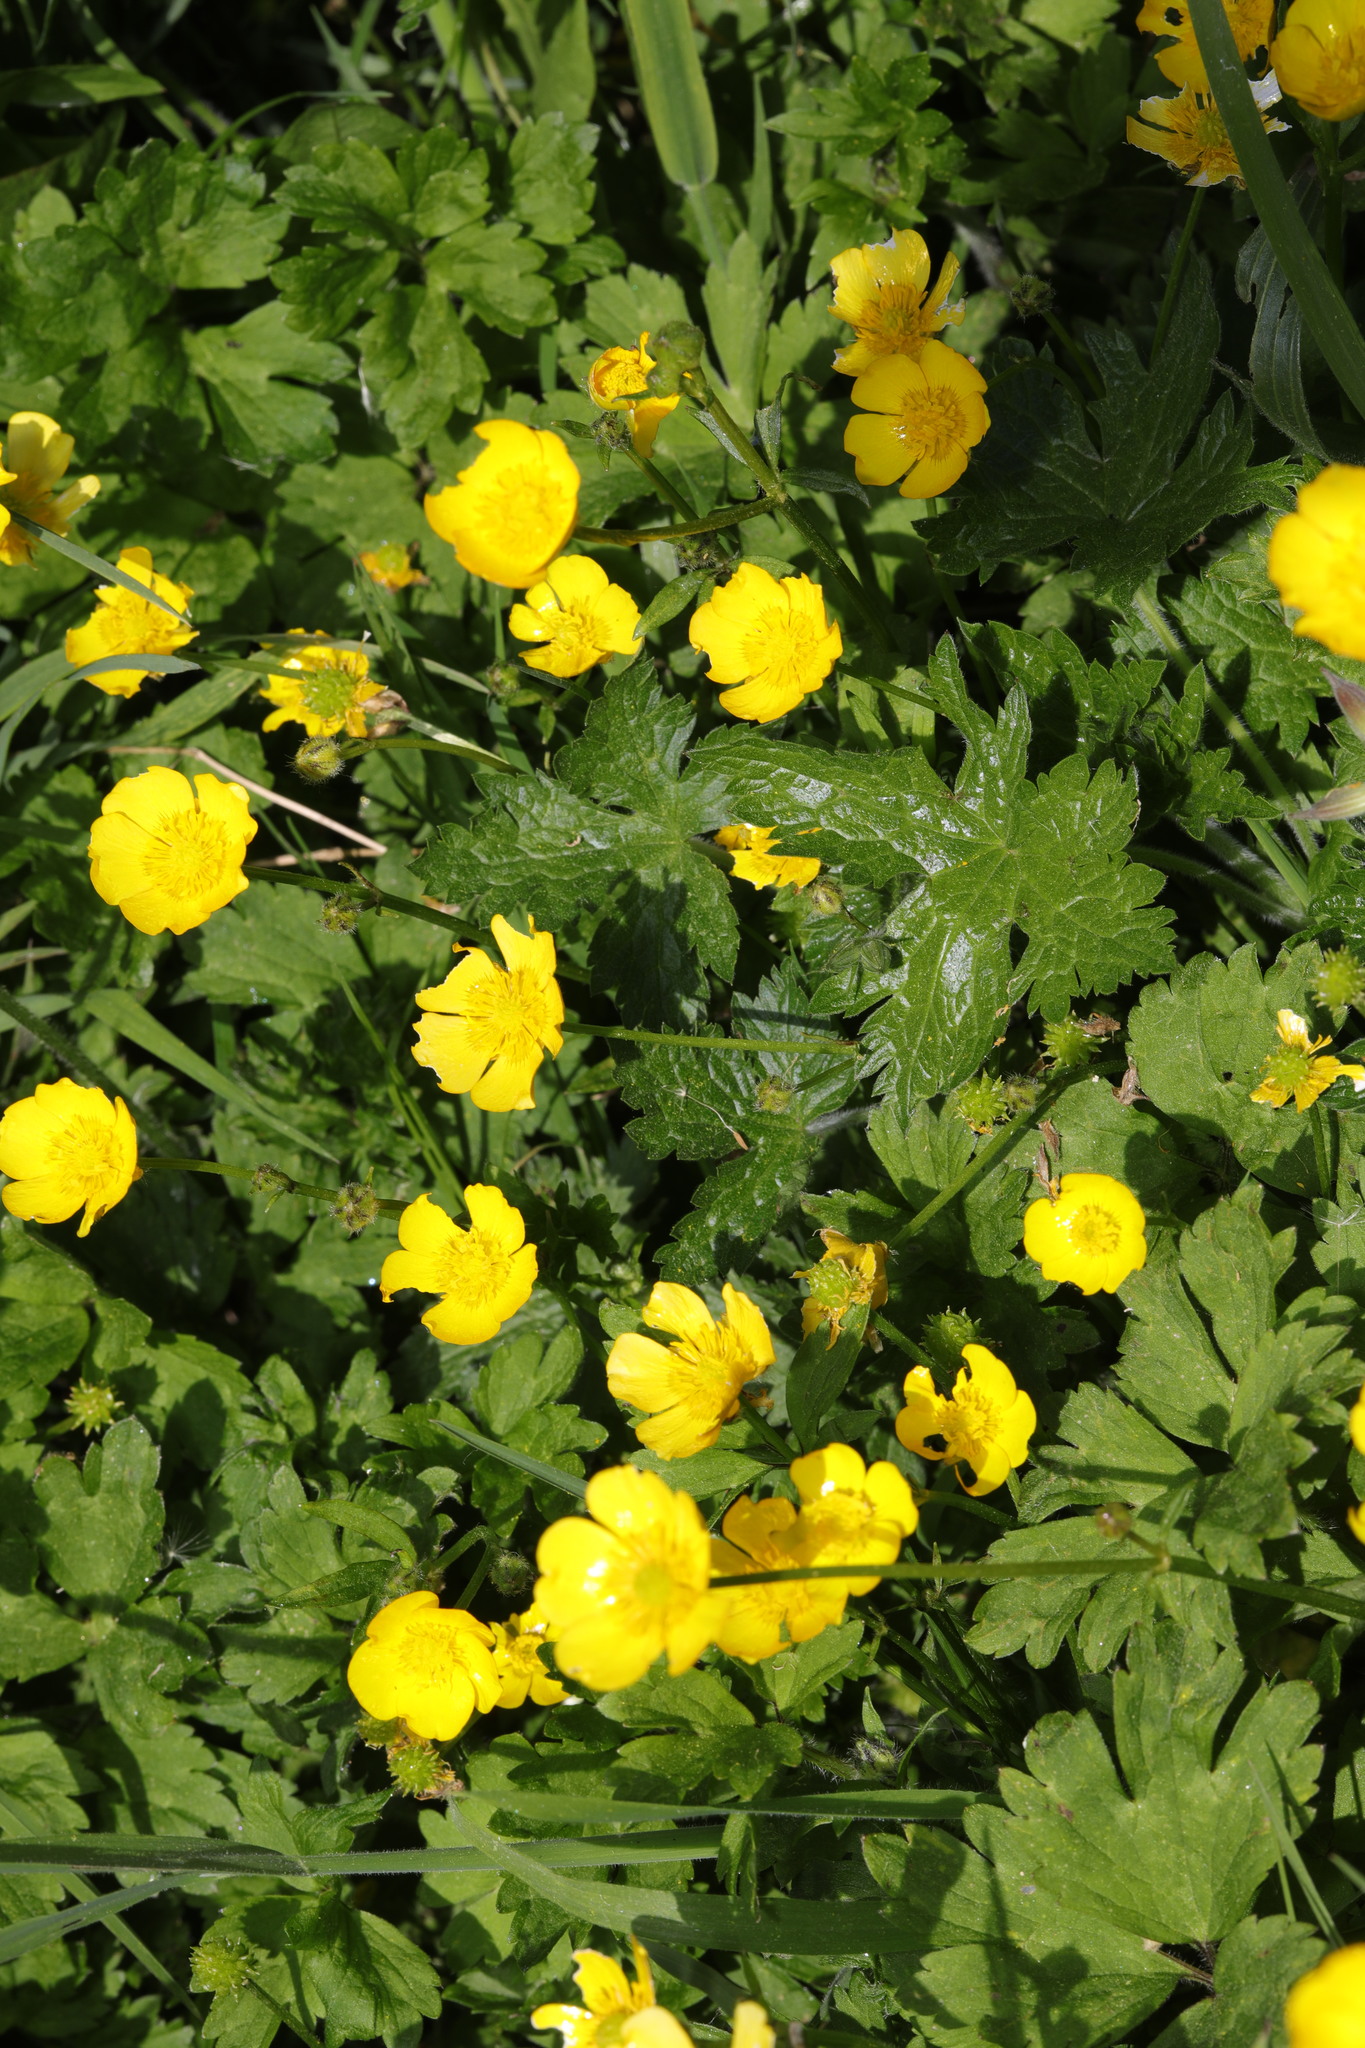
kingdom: Plantae
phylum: Tracheophyta
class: Magnoliopsida
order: Ranunculales
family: Ranunculaceae
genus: Ranunculus
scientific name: Ranunculus repens
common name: Creeping buttercup
